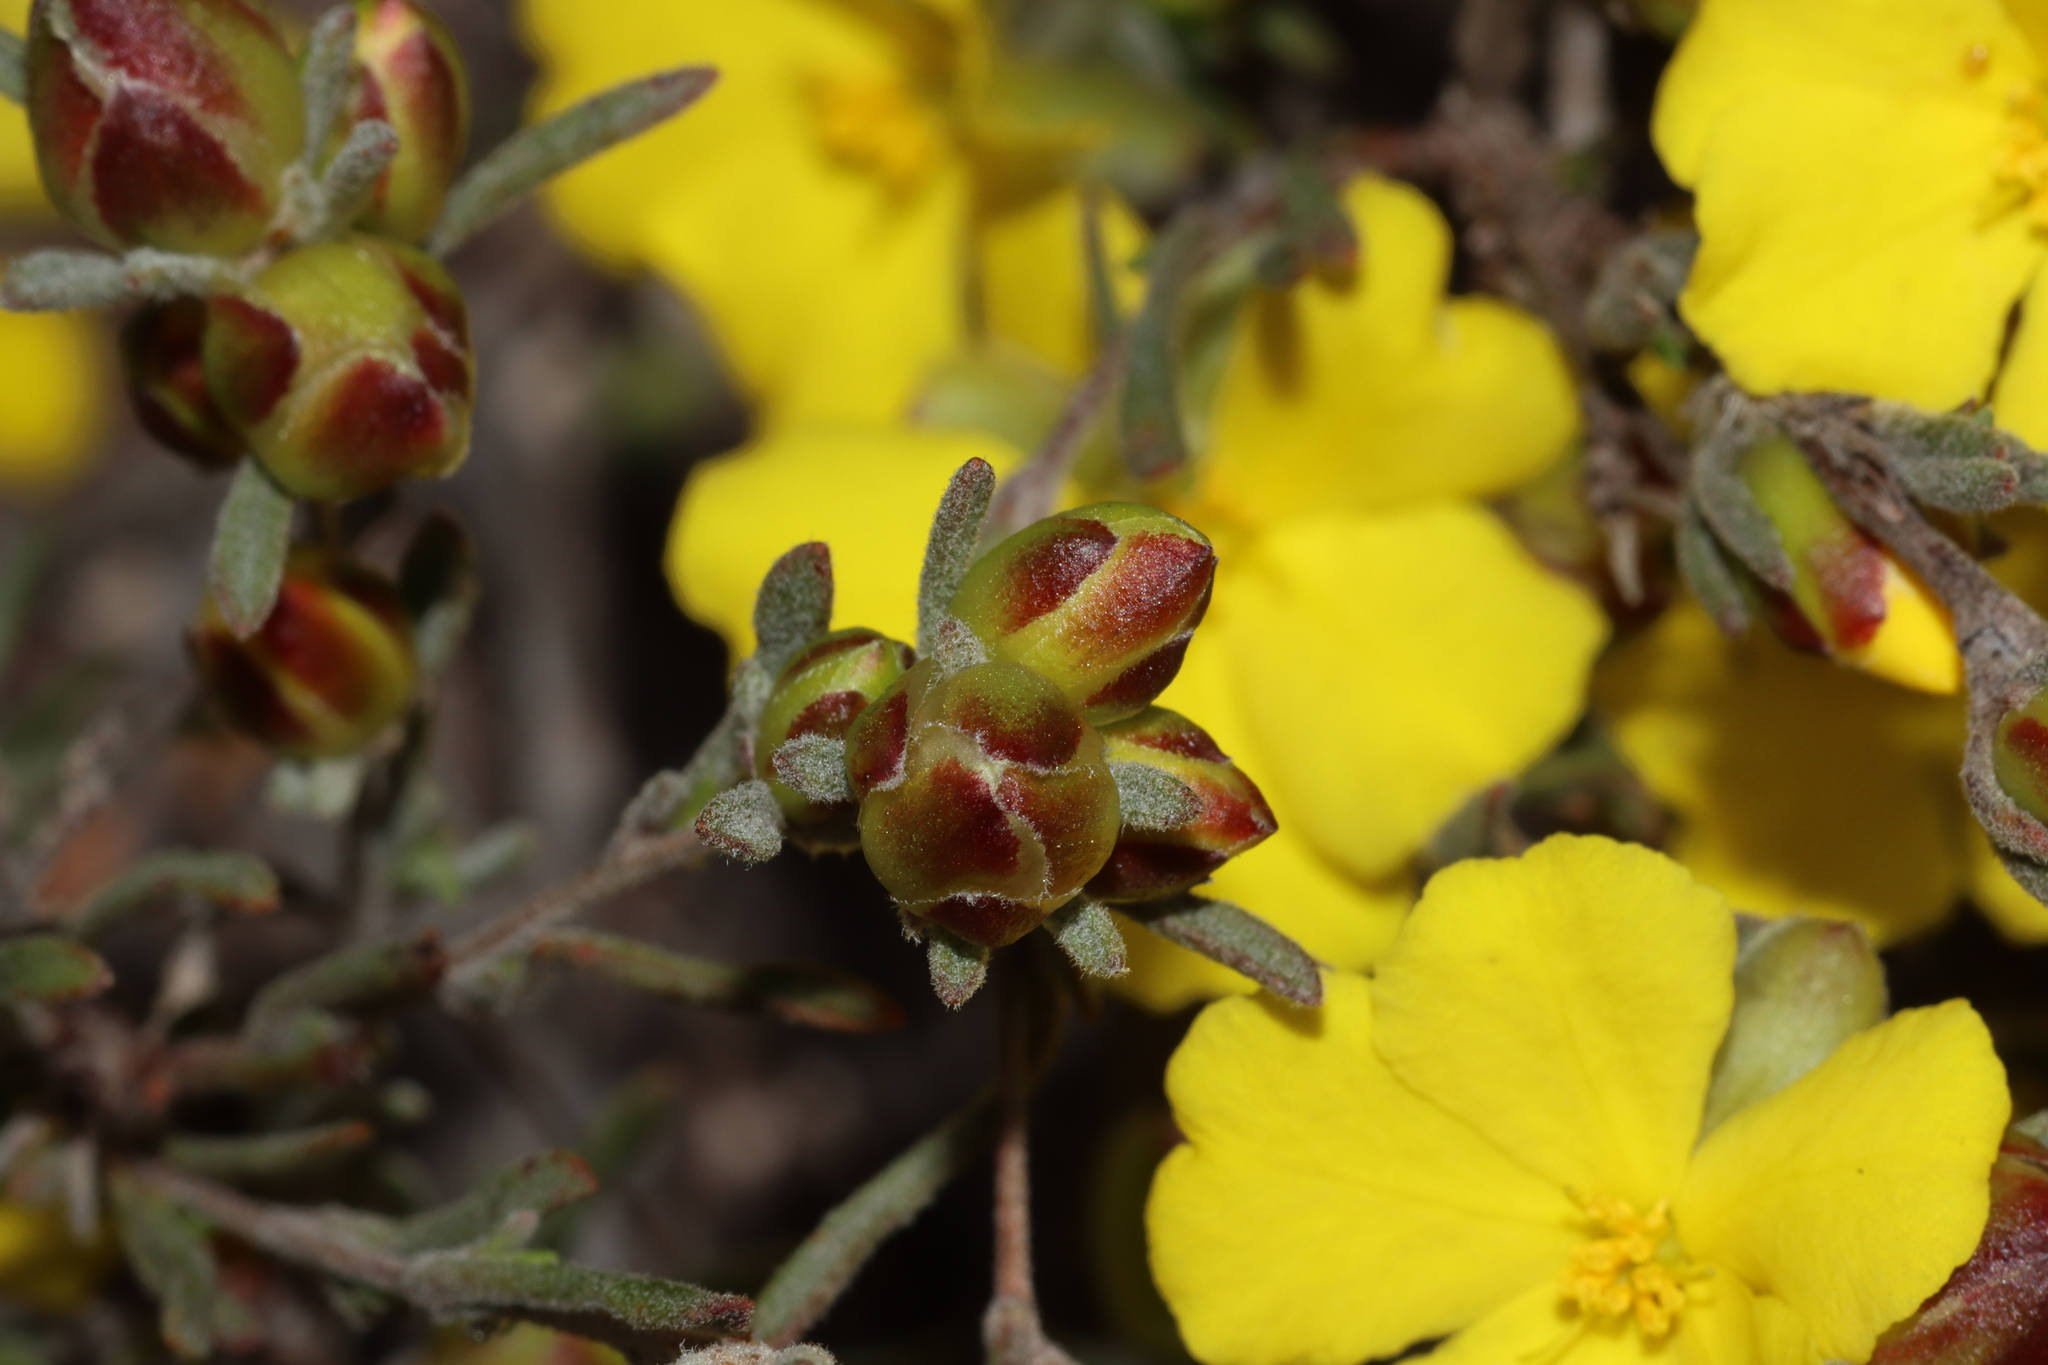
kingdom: Plantae
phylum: Tracheophyta
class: Magnoliopsida
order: Dilleniales
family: Dilleniaceae
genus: Hibbertia
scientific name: Hibbertia virgata
